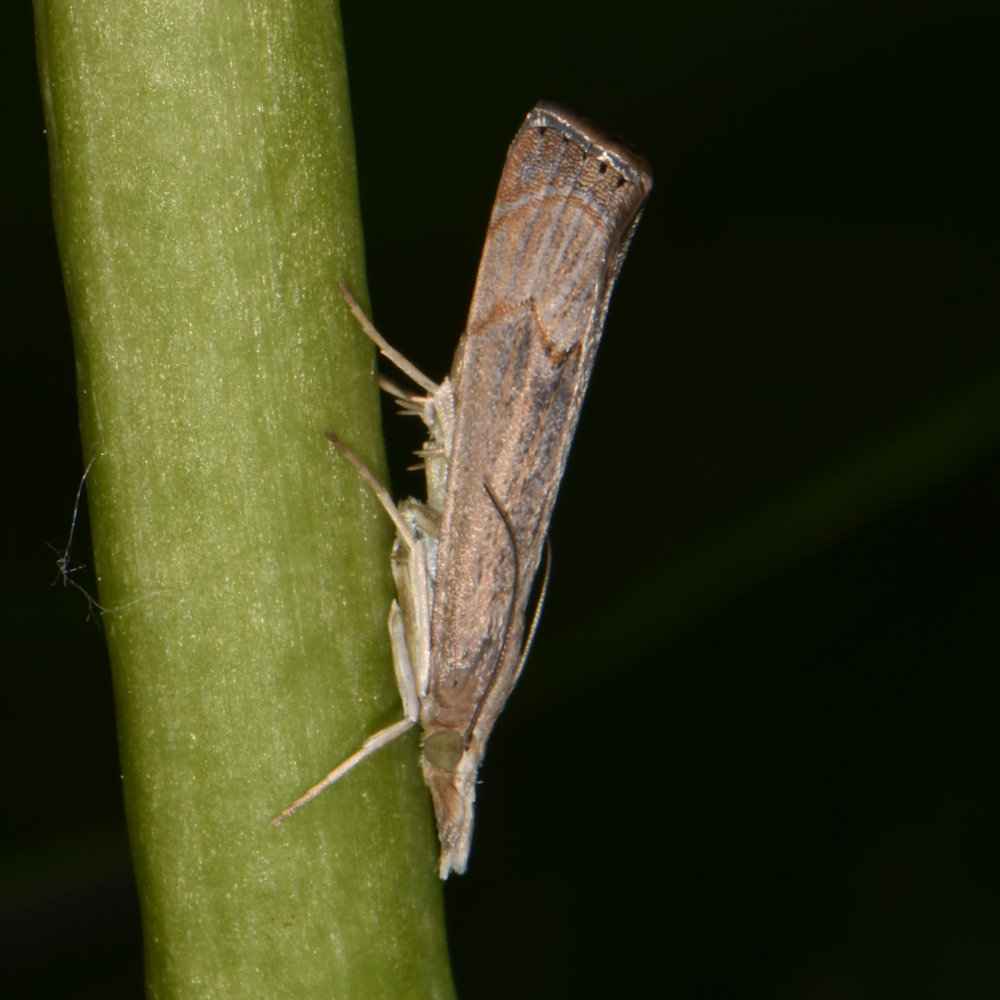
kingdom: Animalia
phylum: Arthropoda
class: Insecta
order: Lepidoptera
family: Crambidae
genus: Parapediasia
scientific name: Parapediasia teterellus
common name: Bluegrass webworm moth
